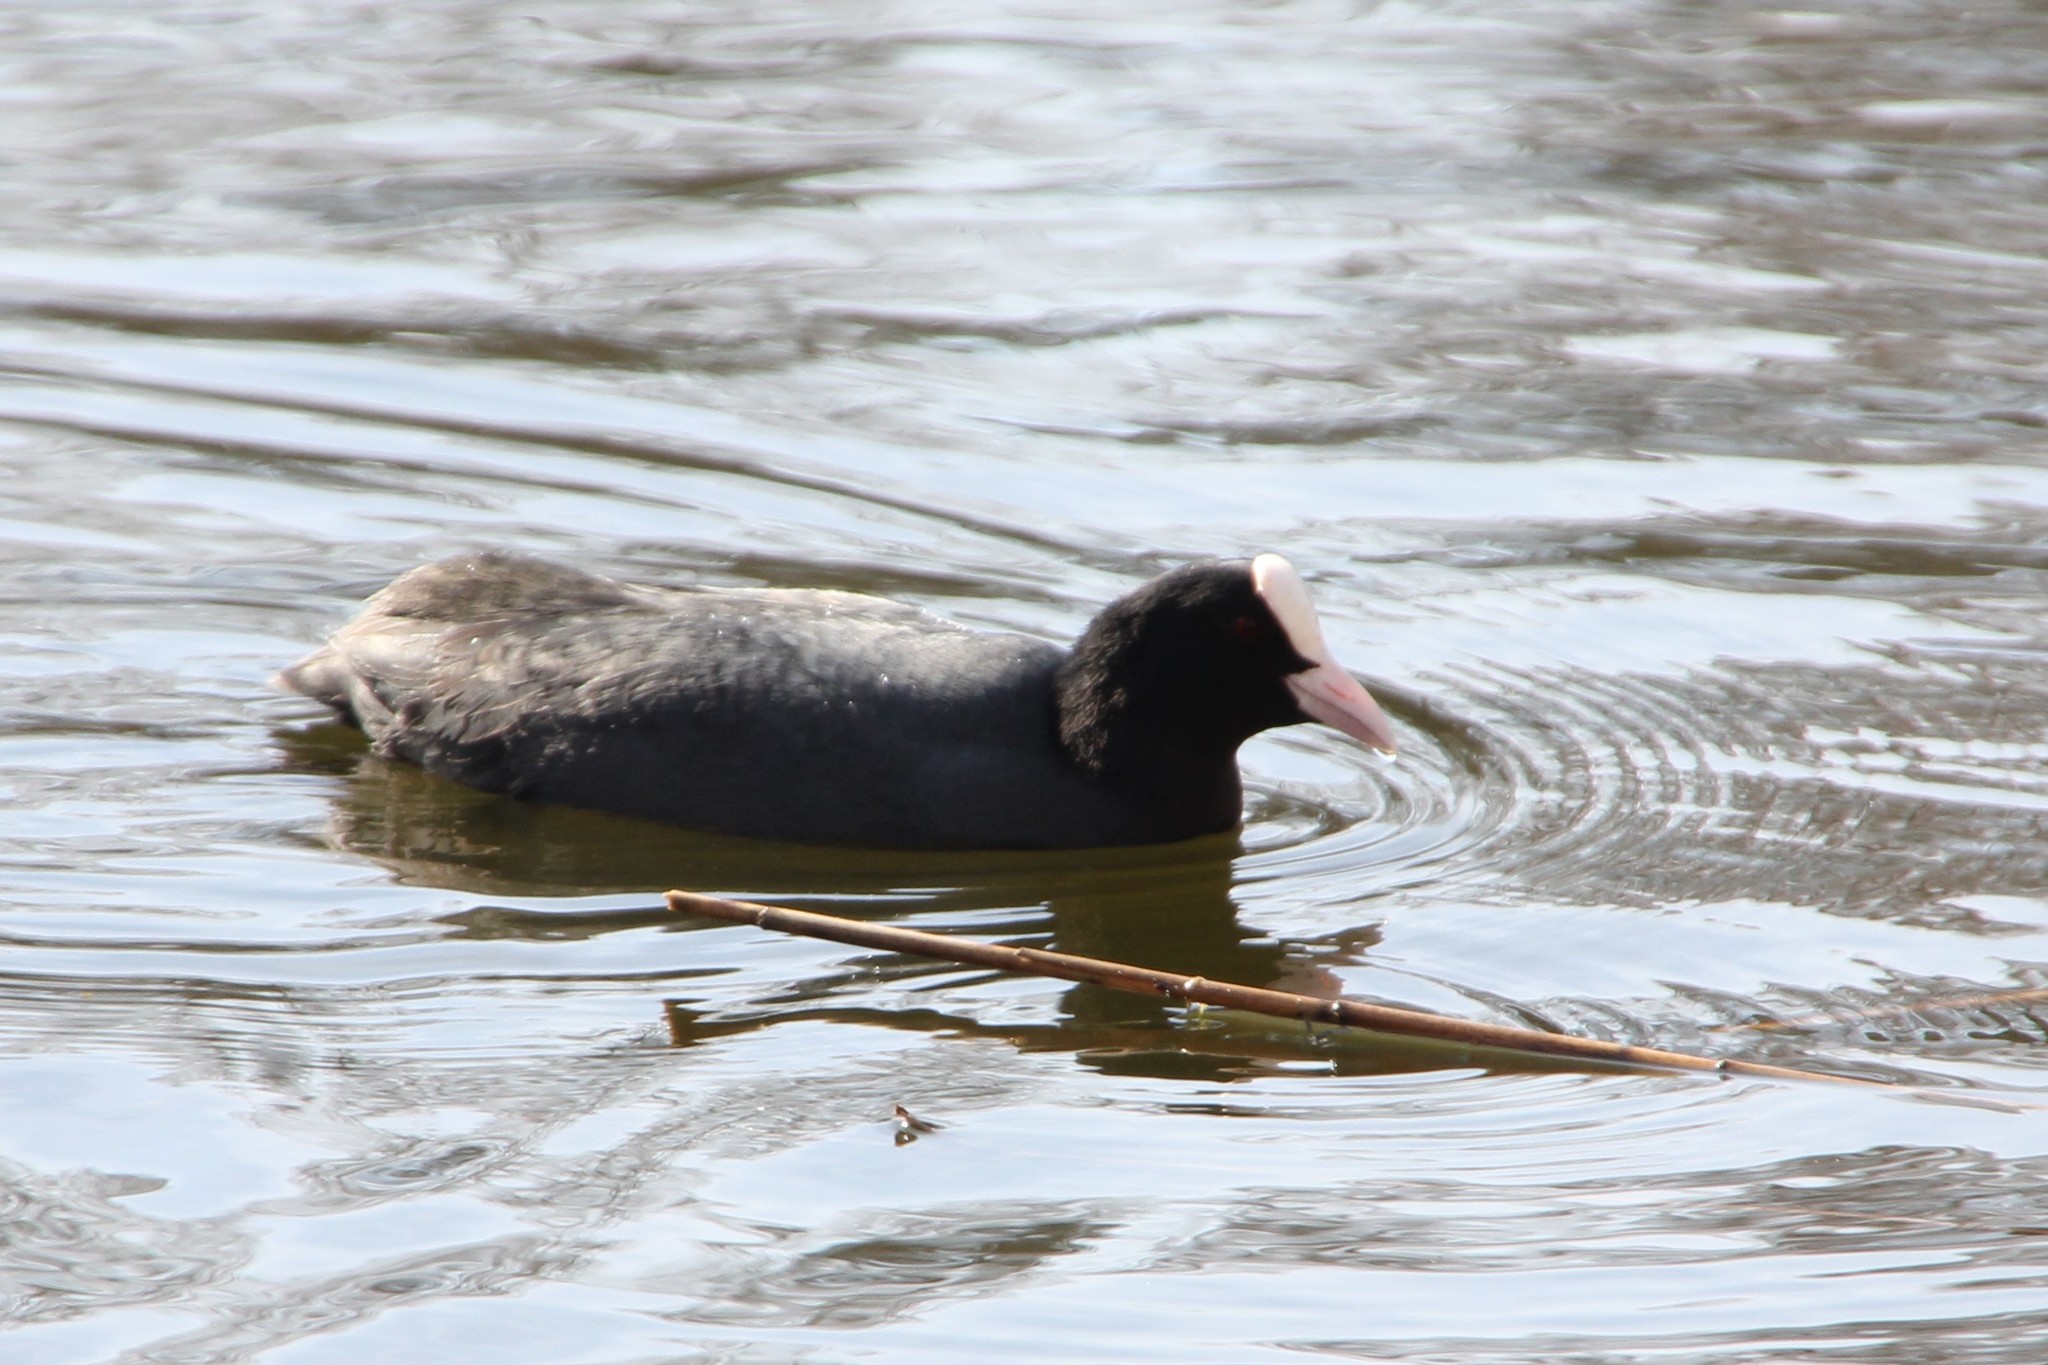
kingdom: Animalia
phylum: Chordata
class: Aves
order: Gruiformes
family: Rallidae
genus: Fulica
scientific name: Fulica atra
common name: Eurasian coot
